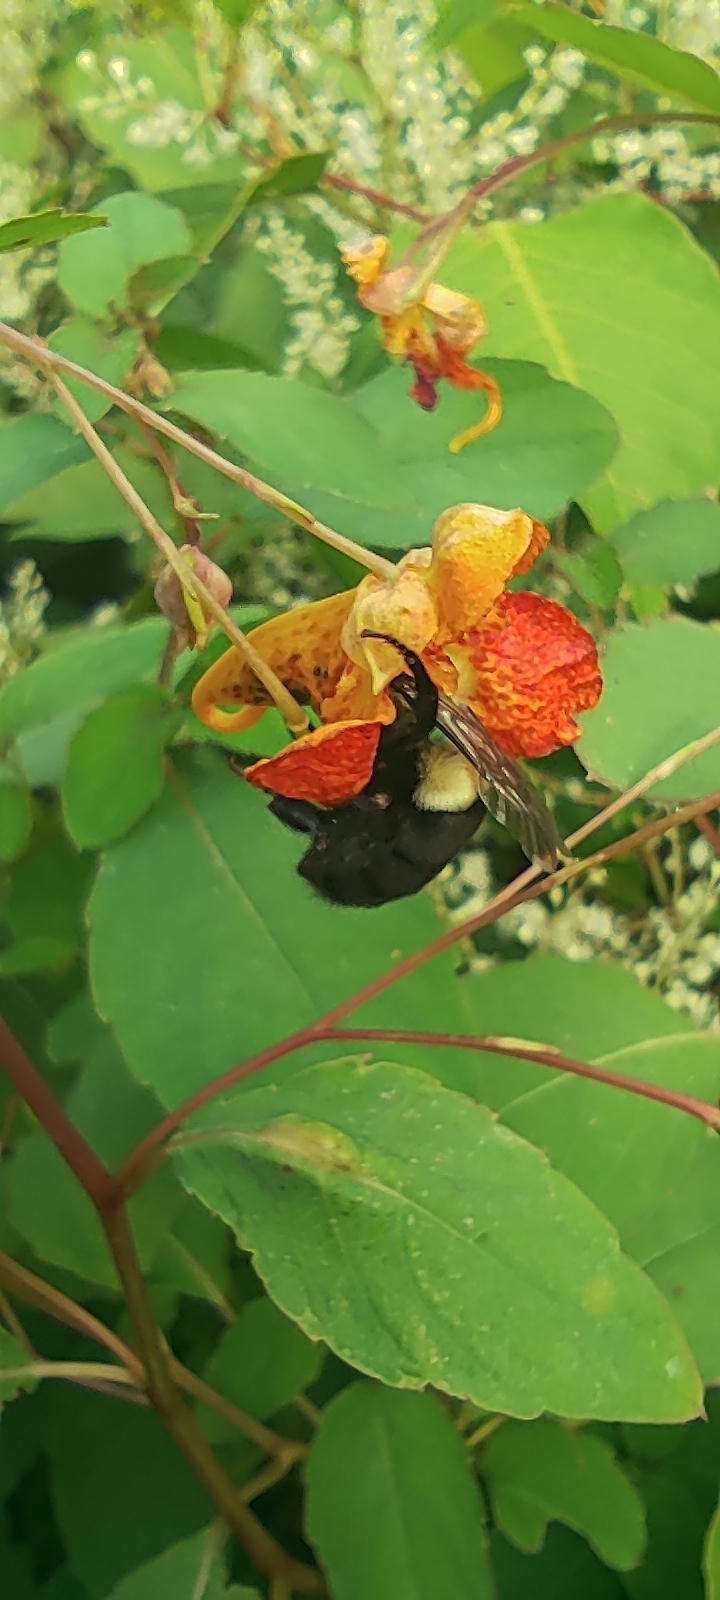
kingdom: Animalia
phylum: Arthropoda
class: Insecta
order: Hymenoptera
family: Apidae
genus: Bombus
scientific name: Bombus impatiens
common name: Common eastern bumble bee
